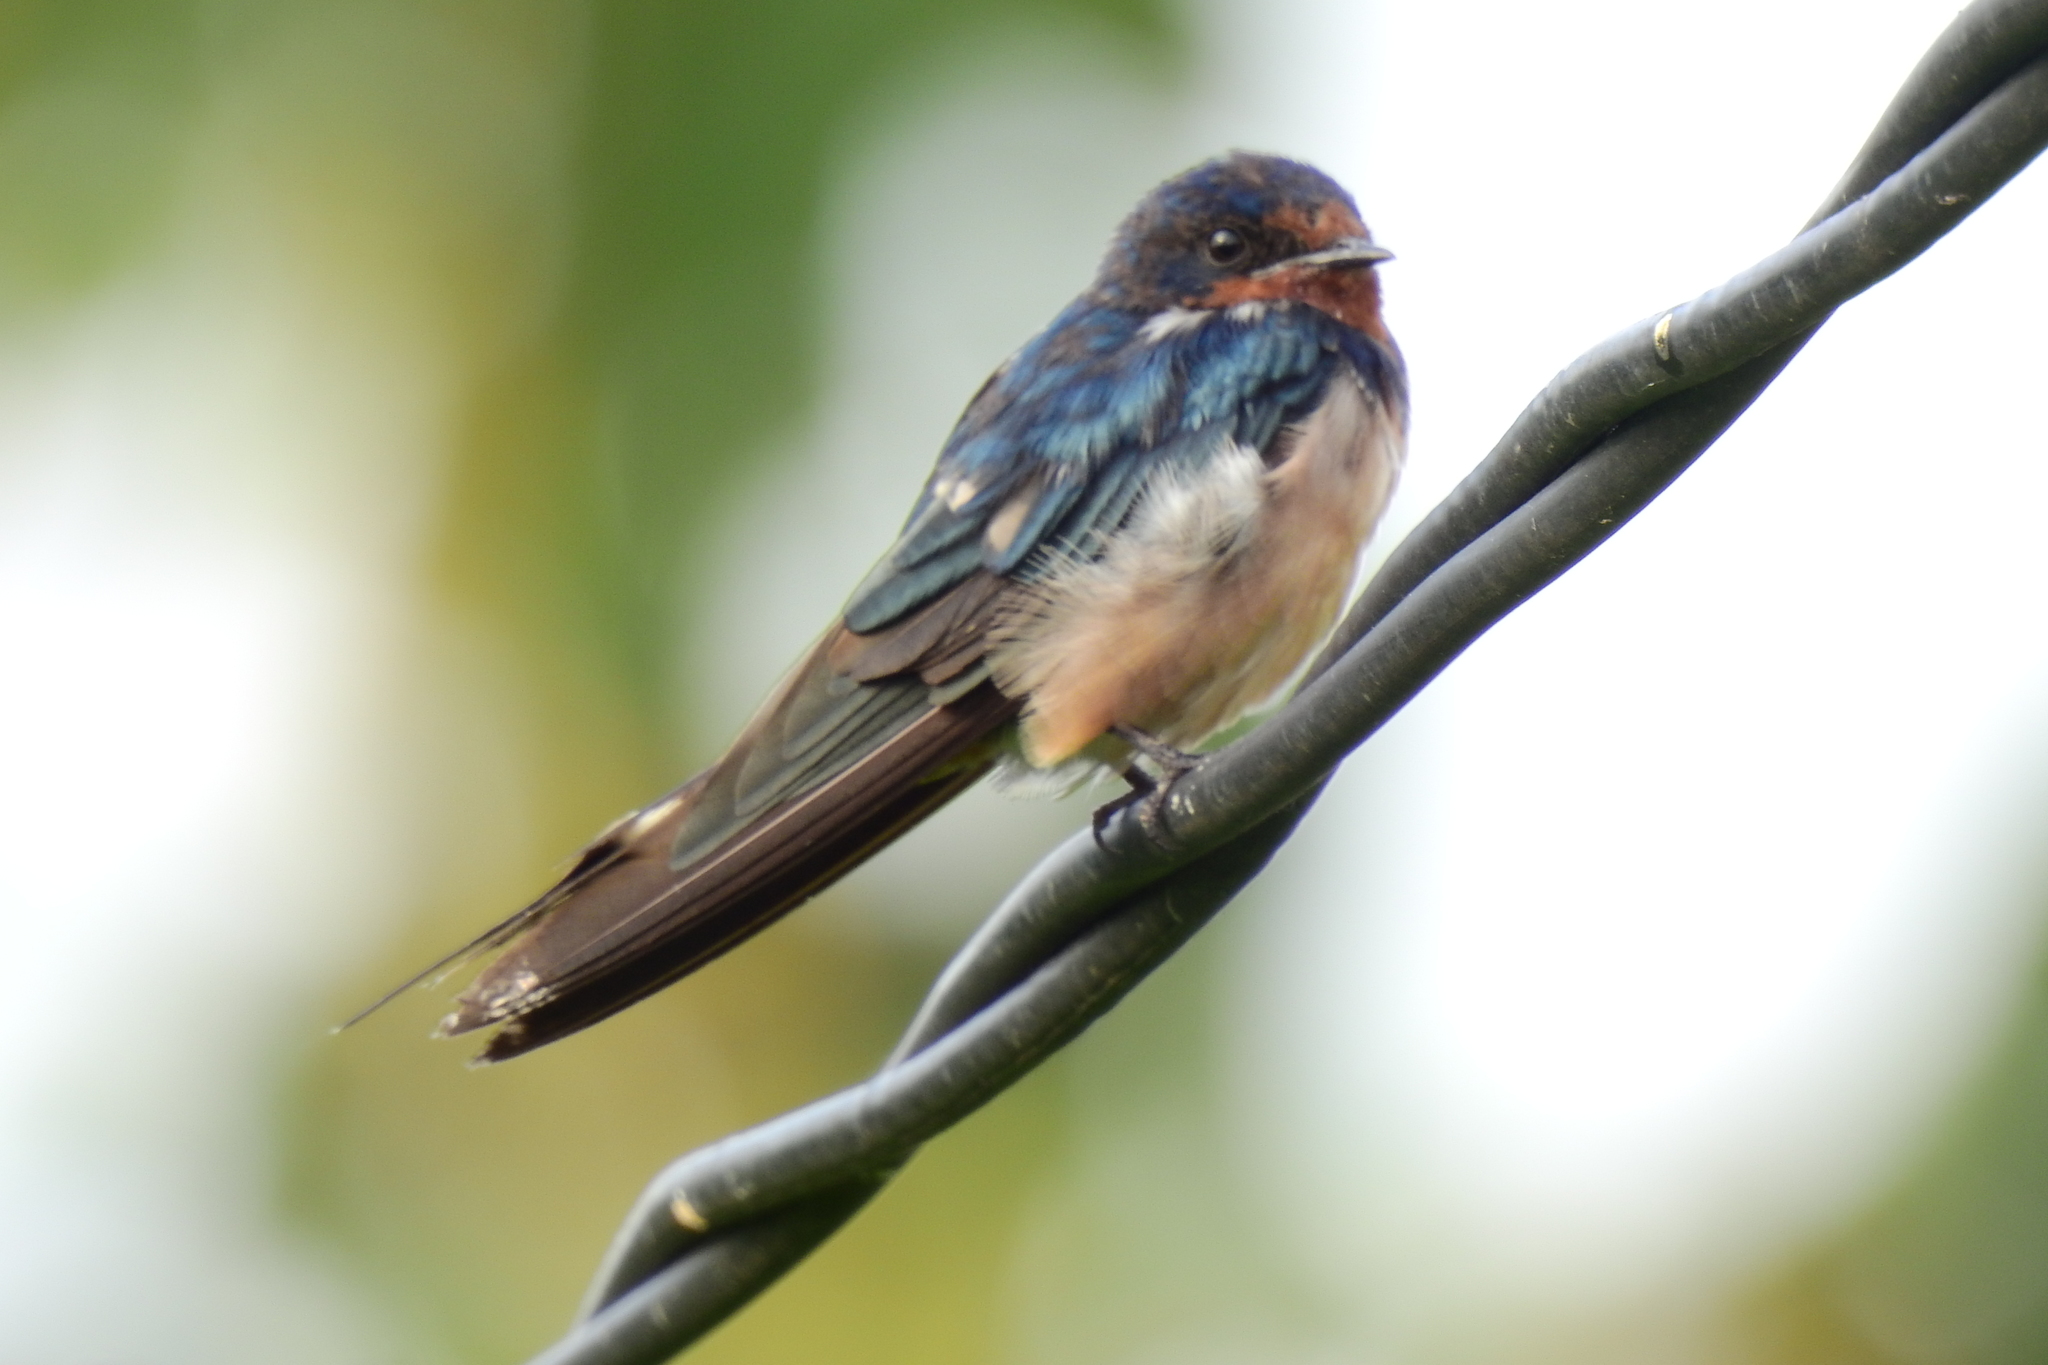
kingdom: Animalia
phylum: Chordata
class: Aves
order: Passeriformes
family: Hirundinidae
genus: Hirundo
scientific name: Hirundo rustica
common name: Barn swallow
